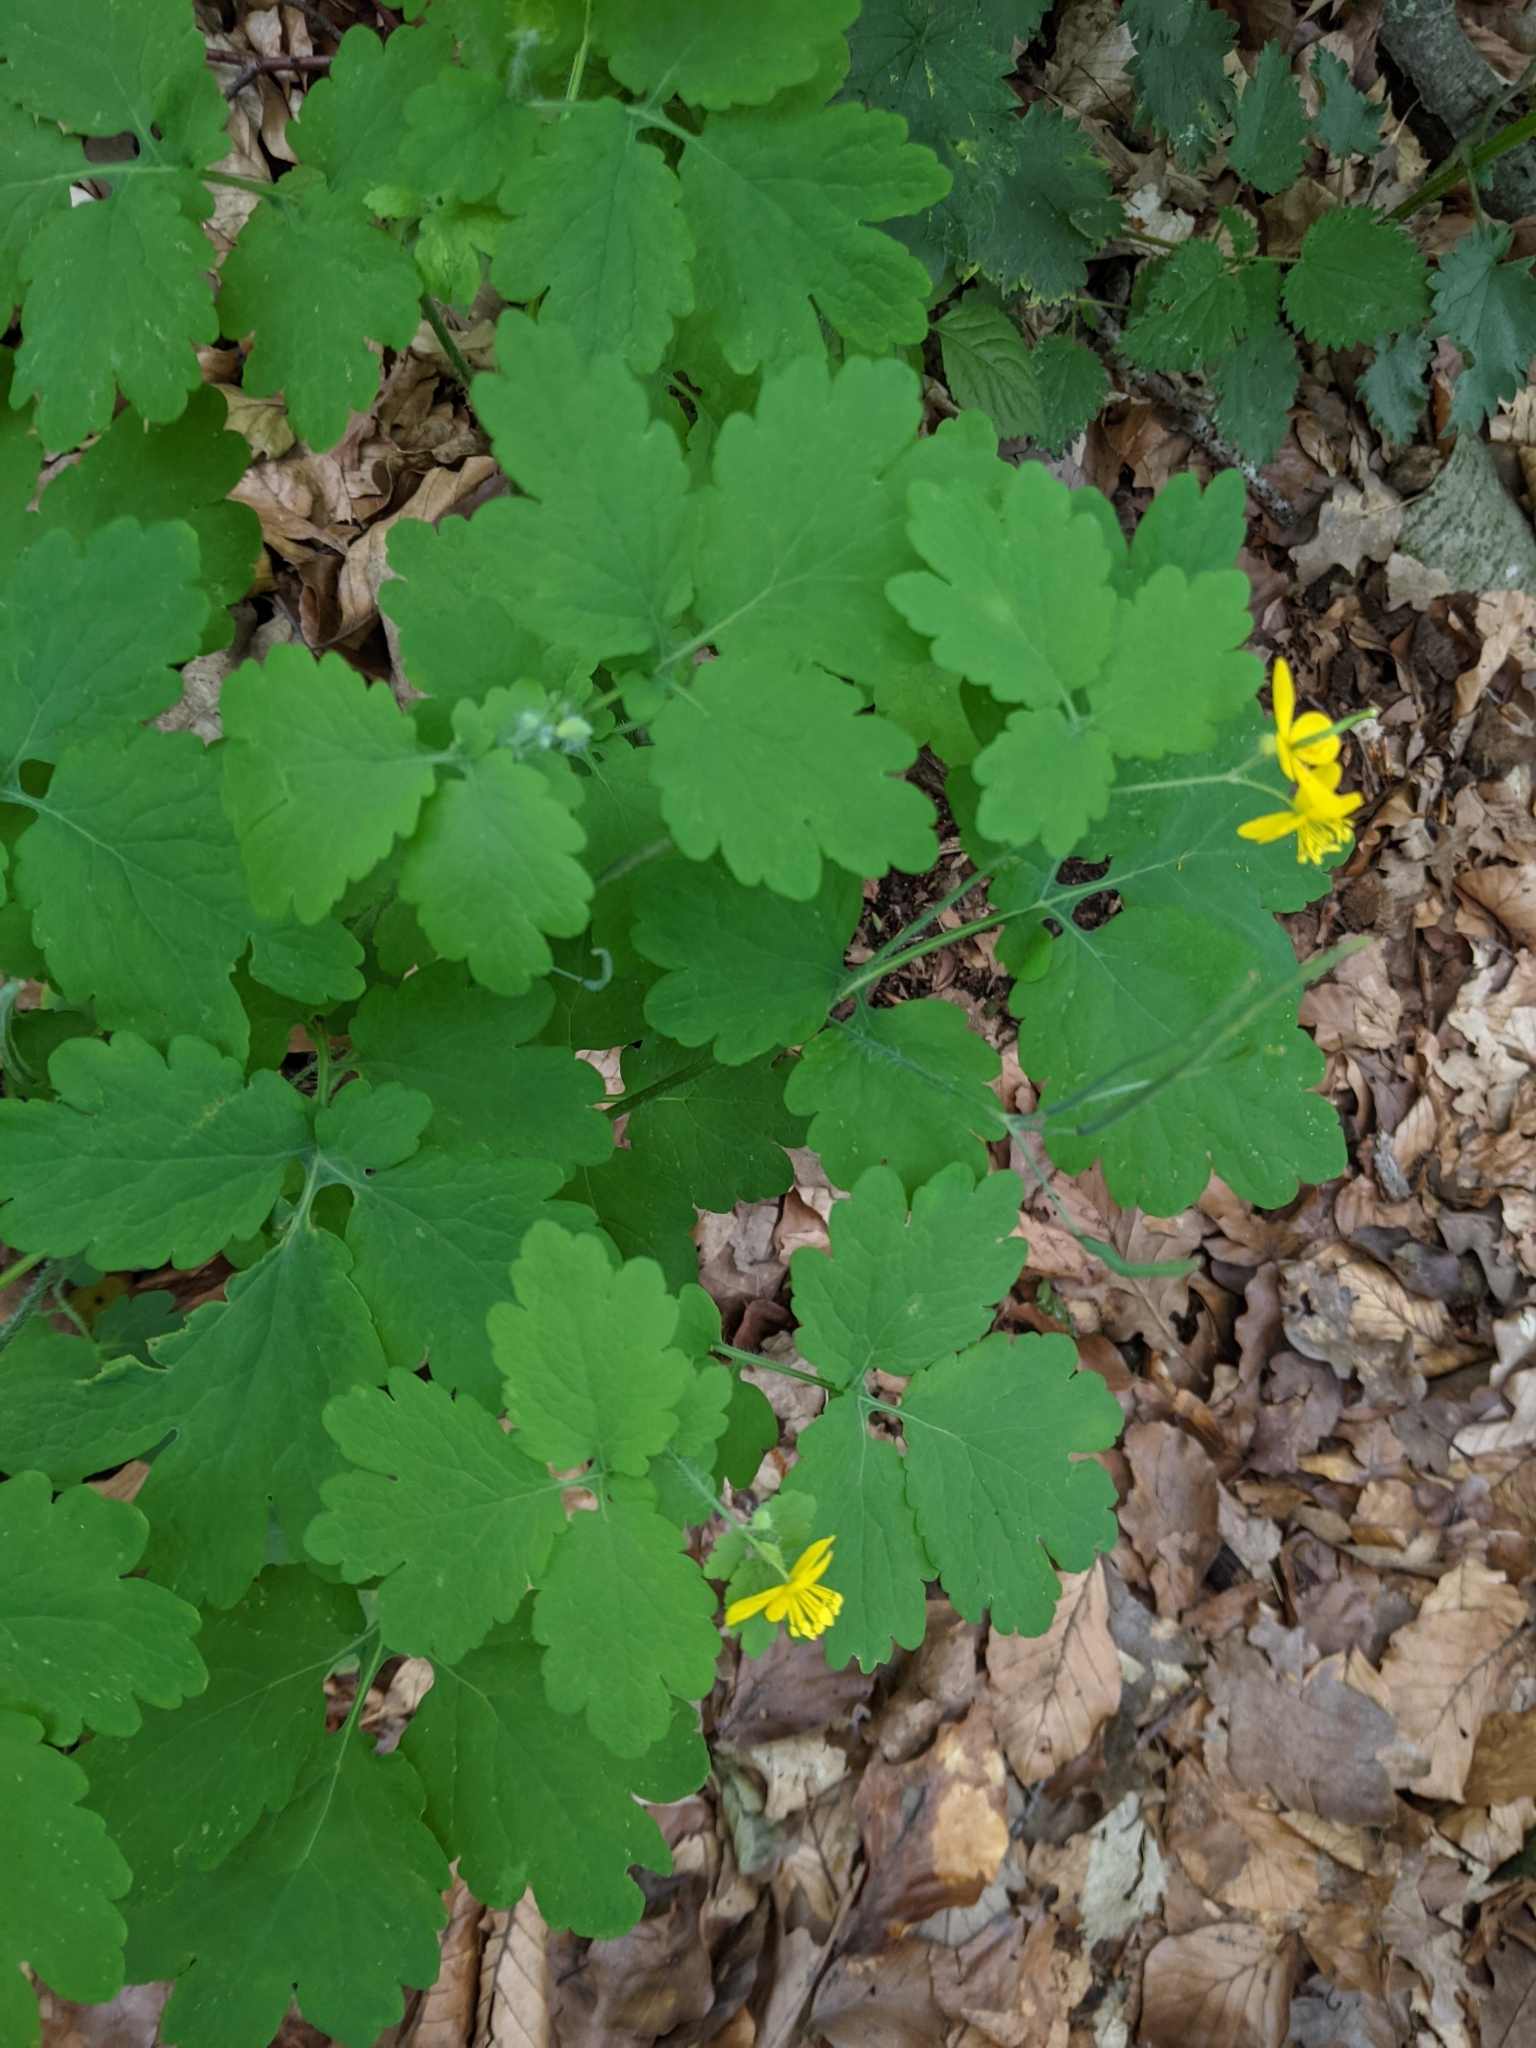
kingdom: Plantae
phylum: Tracheophyta
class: Magnoliopsida
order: Ranunculales
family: Papaveraceae
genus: Chelidonium
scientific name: Chelidonium majus
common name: Greater celandine
